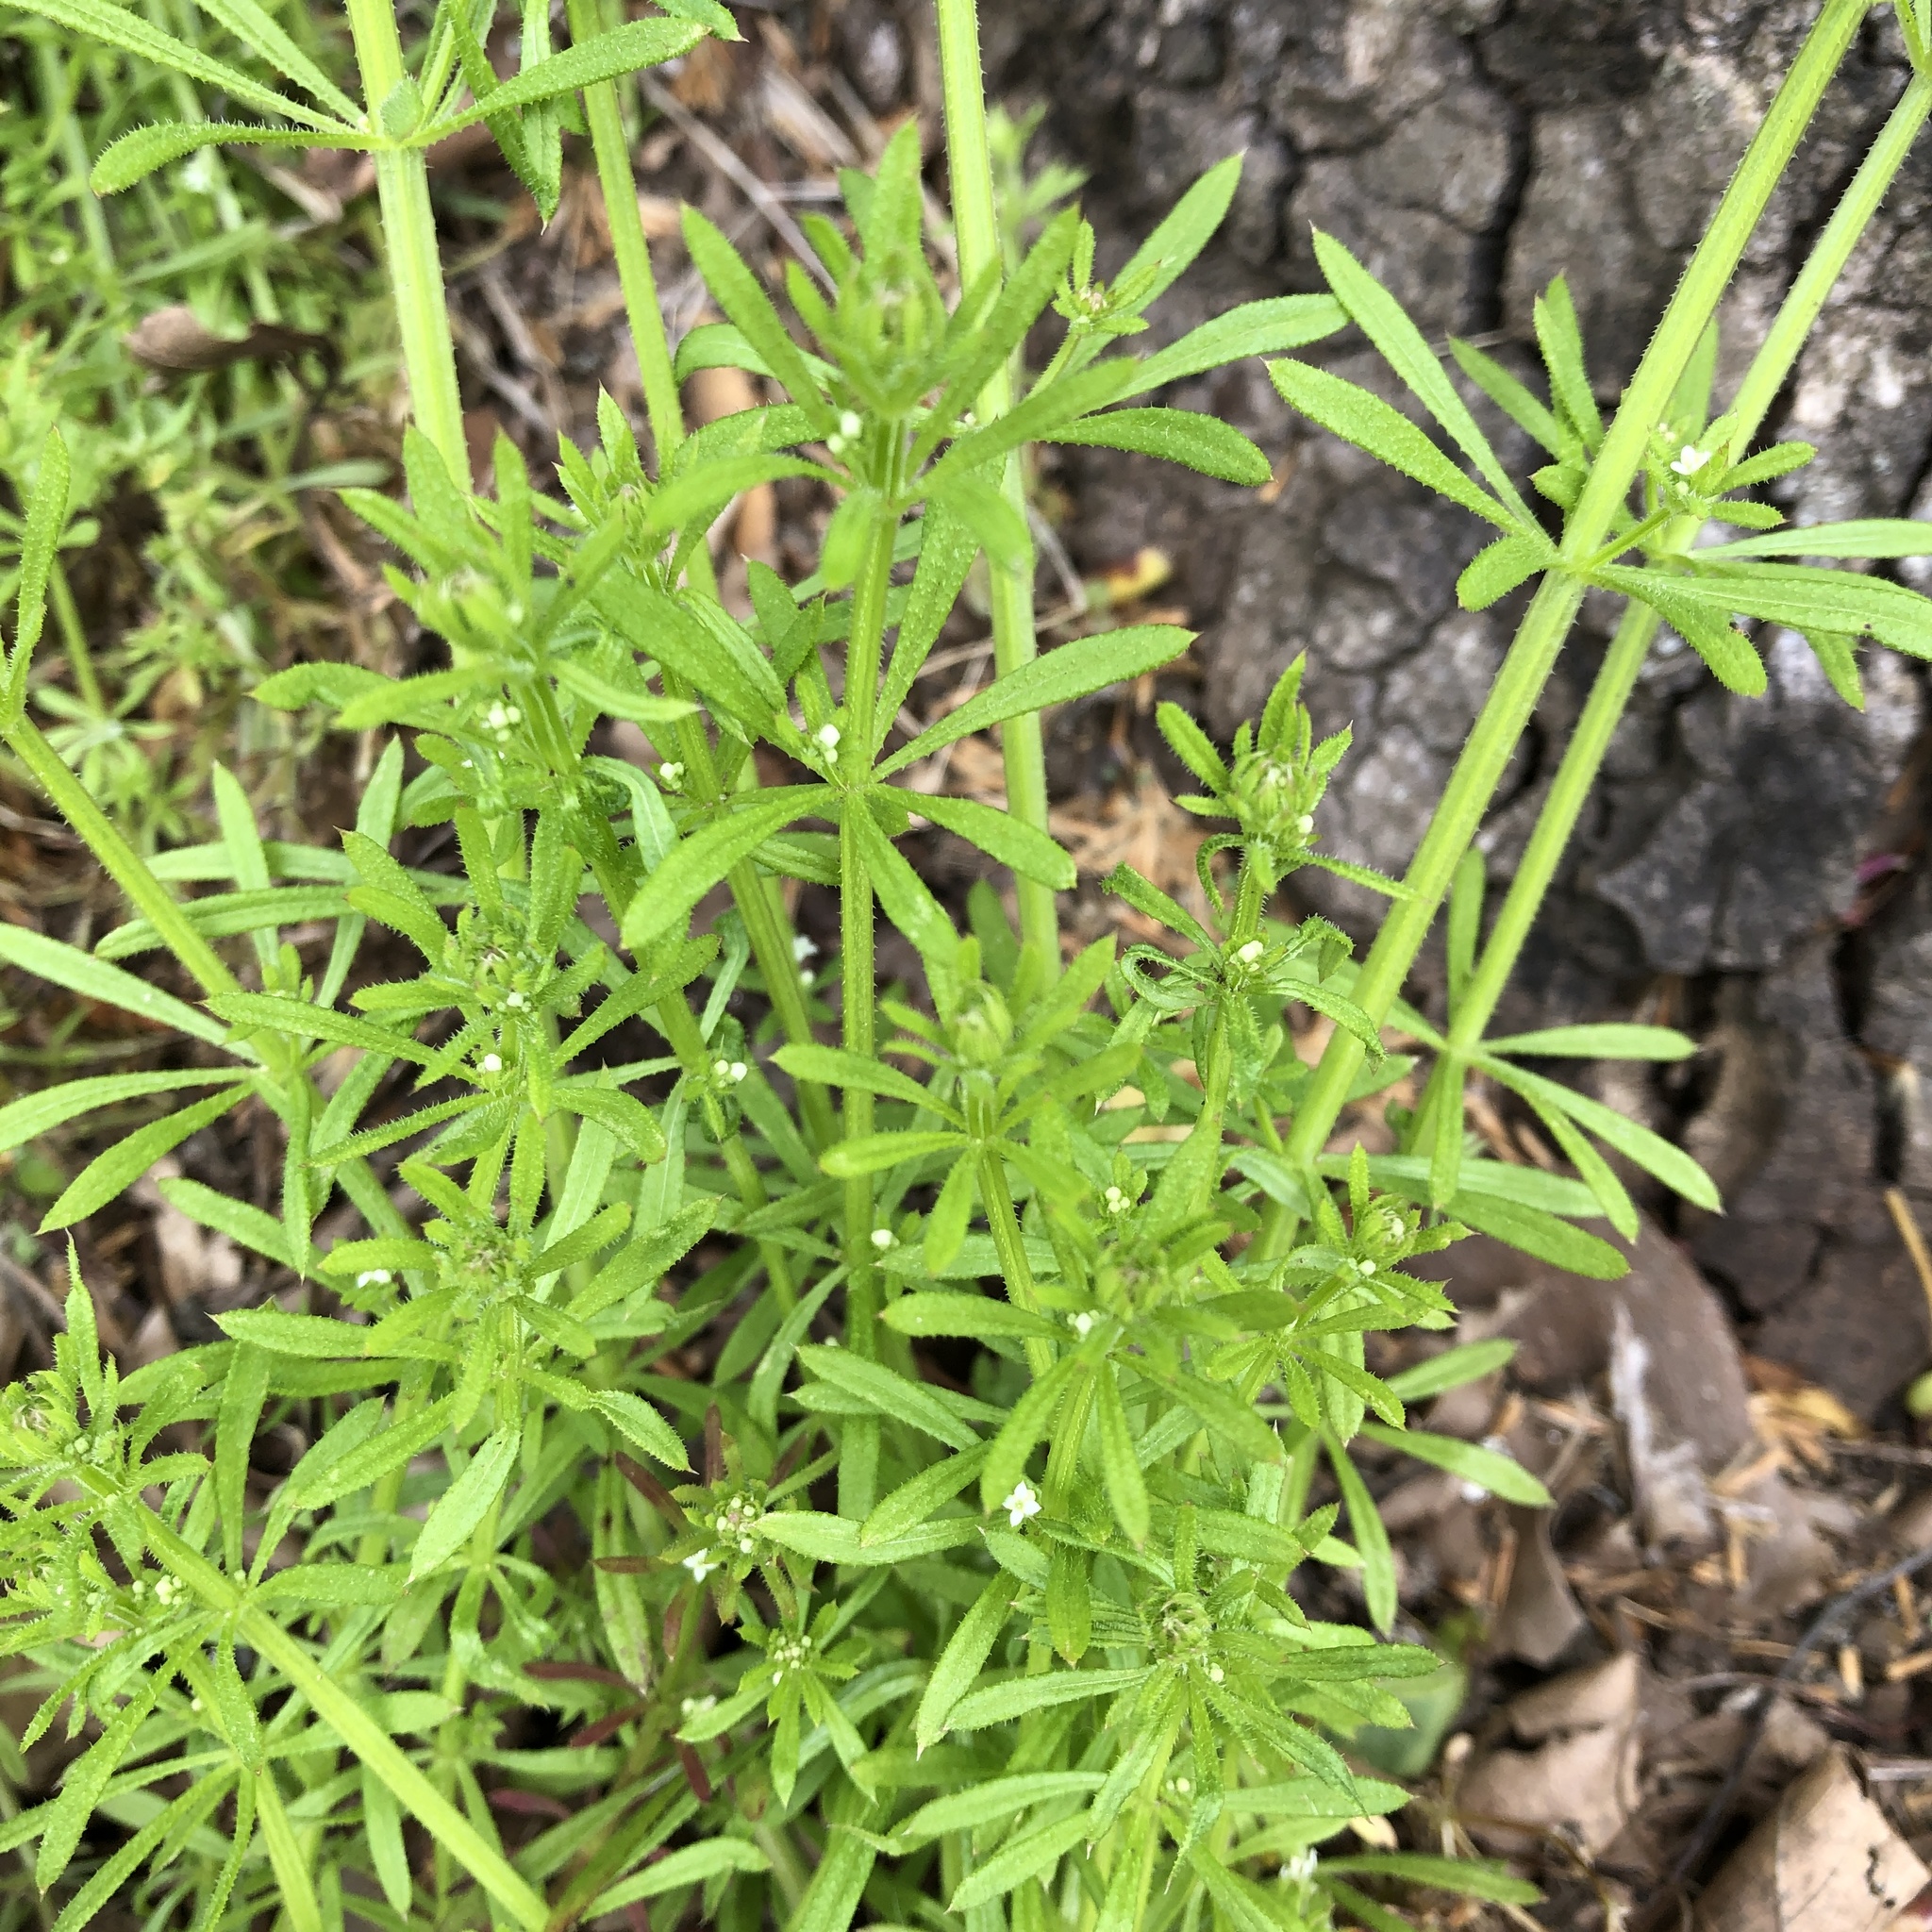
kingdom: Plantae
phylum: Tracheophyta
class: Magnoliopsida
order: Gentianales
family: Rubiaceae
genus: Galium
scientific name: Galium aparine
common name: Cleavers
